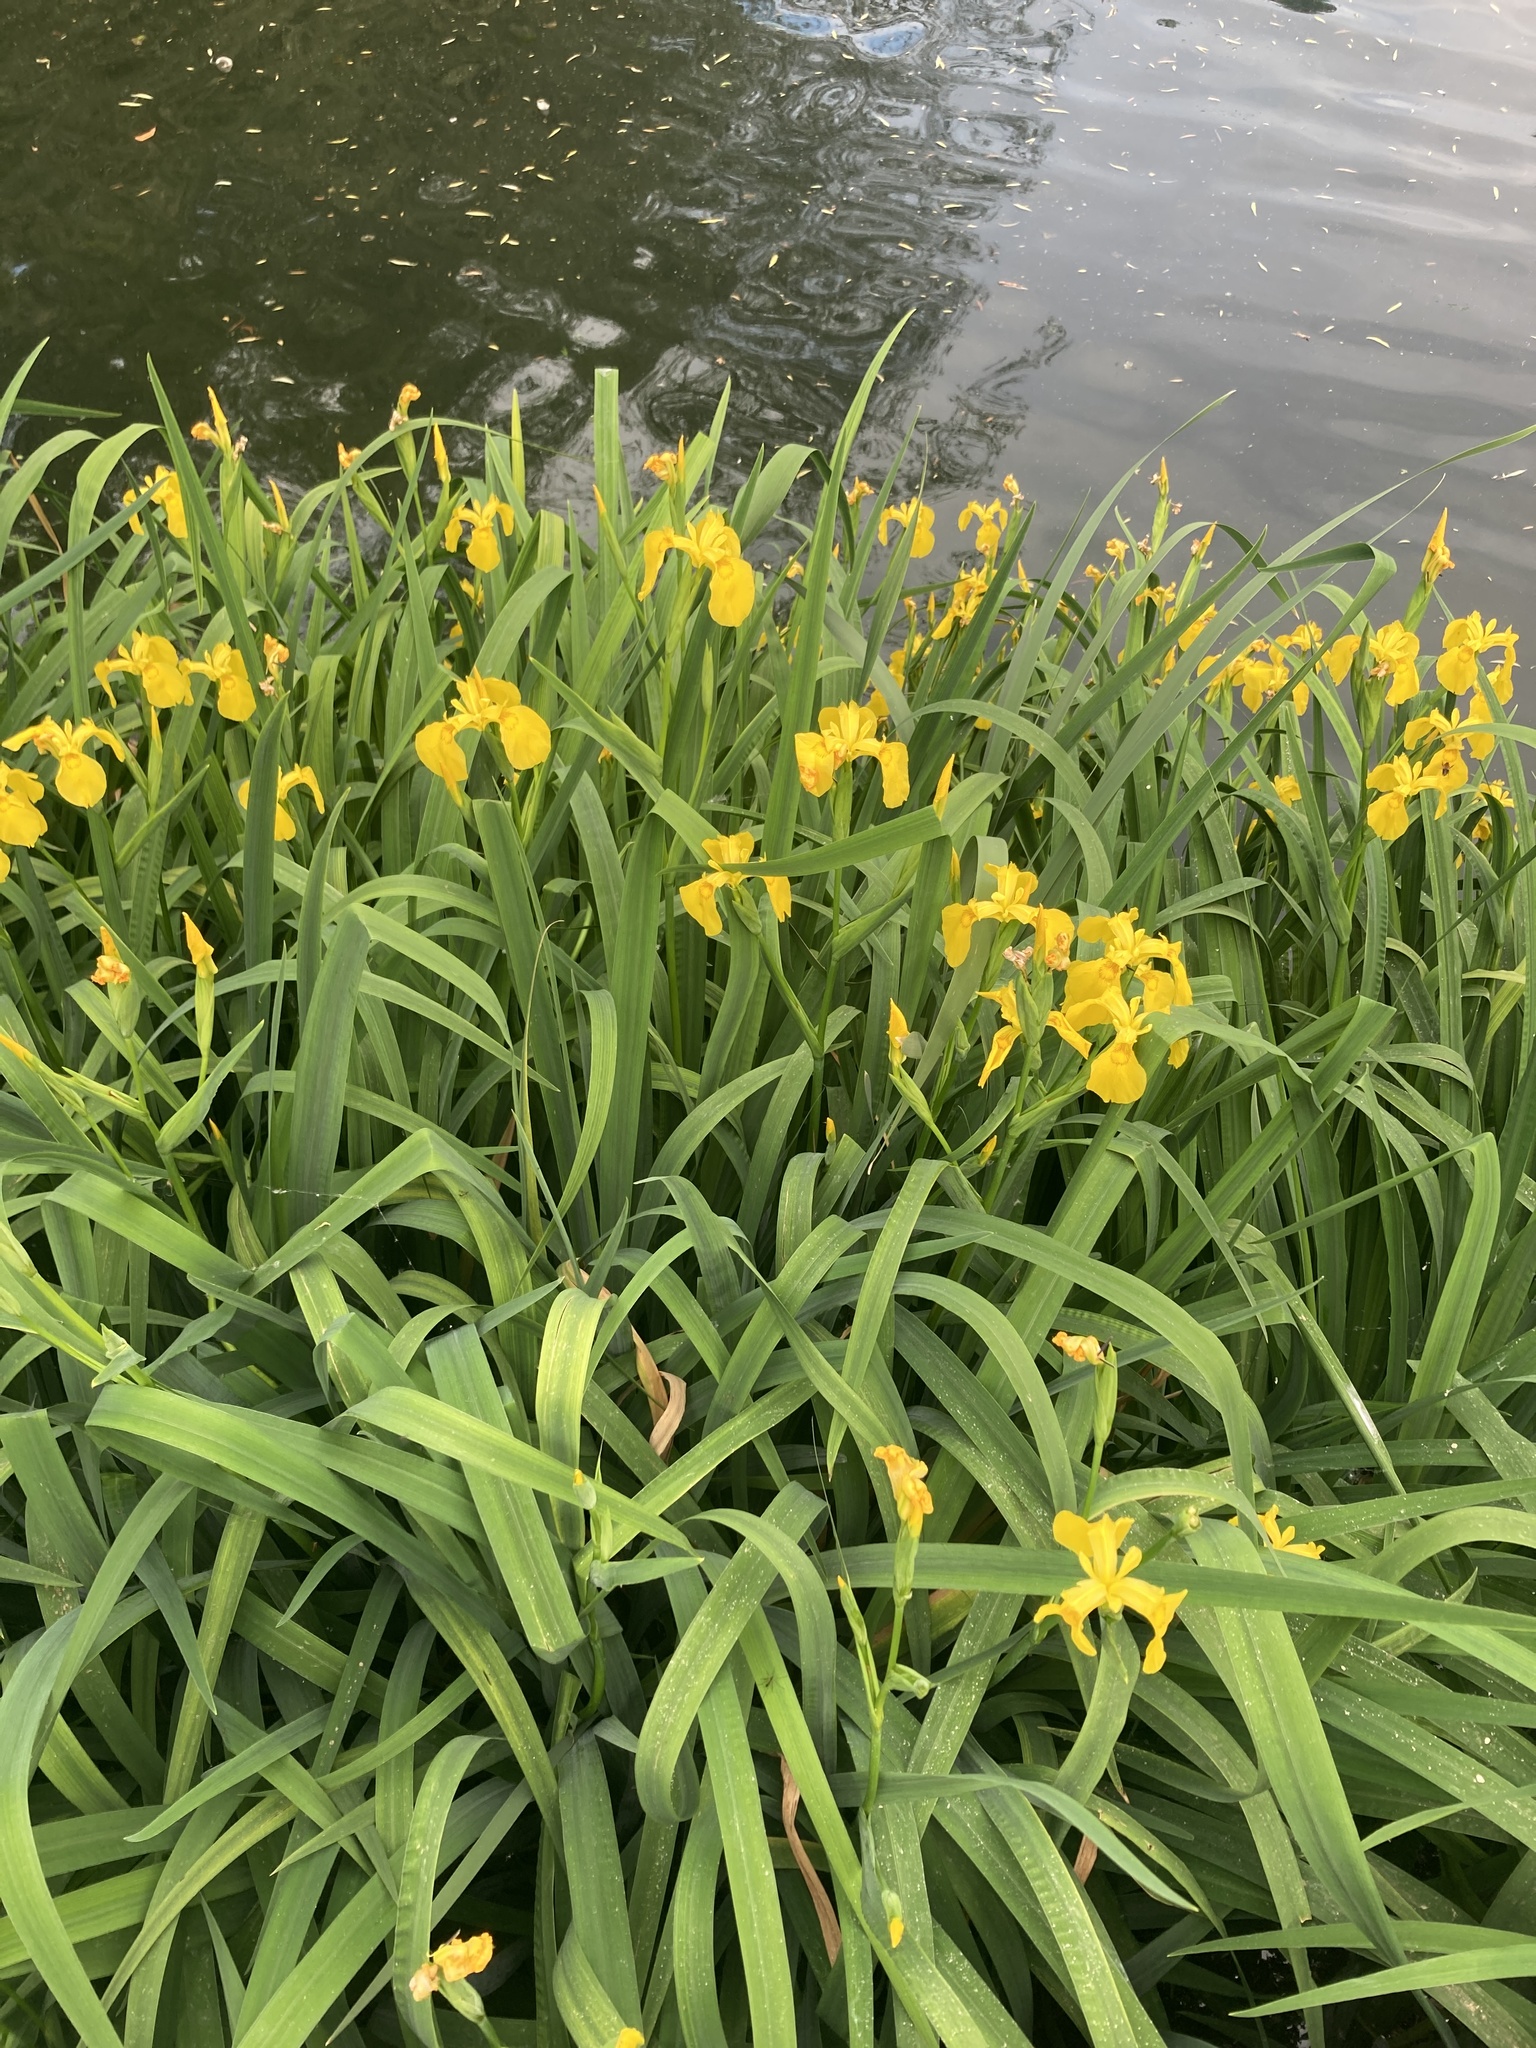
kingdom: Plantae
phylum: Tracheophyta
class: Liliopsida
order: Asparagales
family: Iridaceae
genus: Iris
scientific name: Iris pseudacorus
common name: Yellow flag
